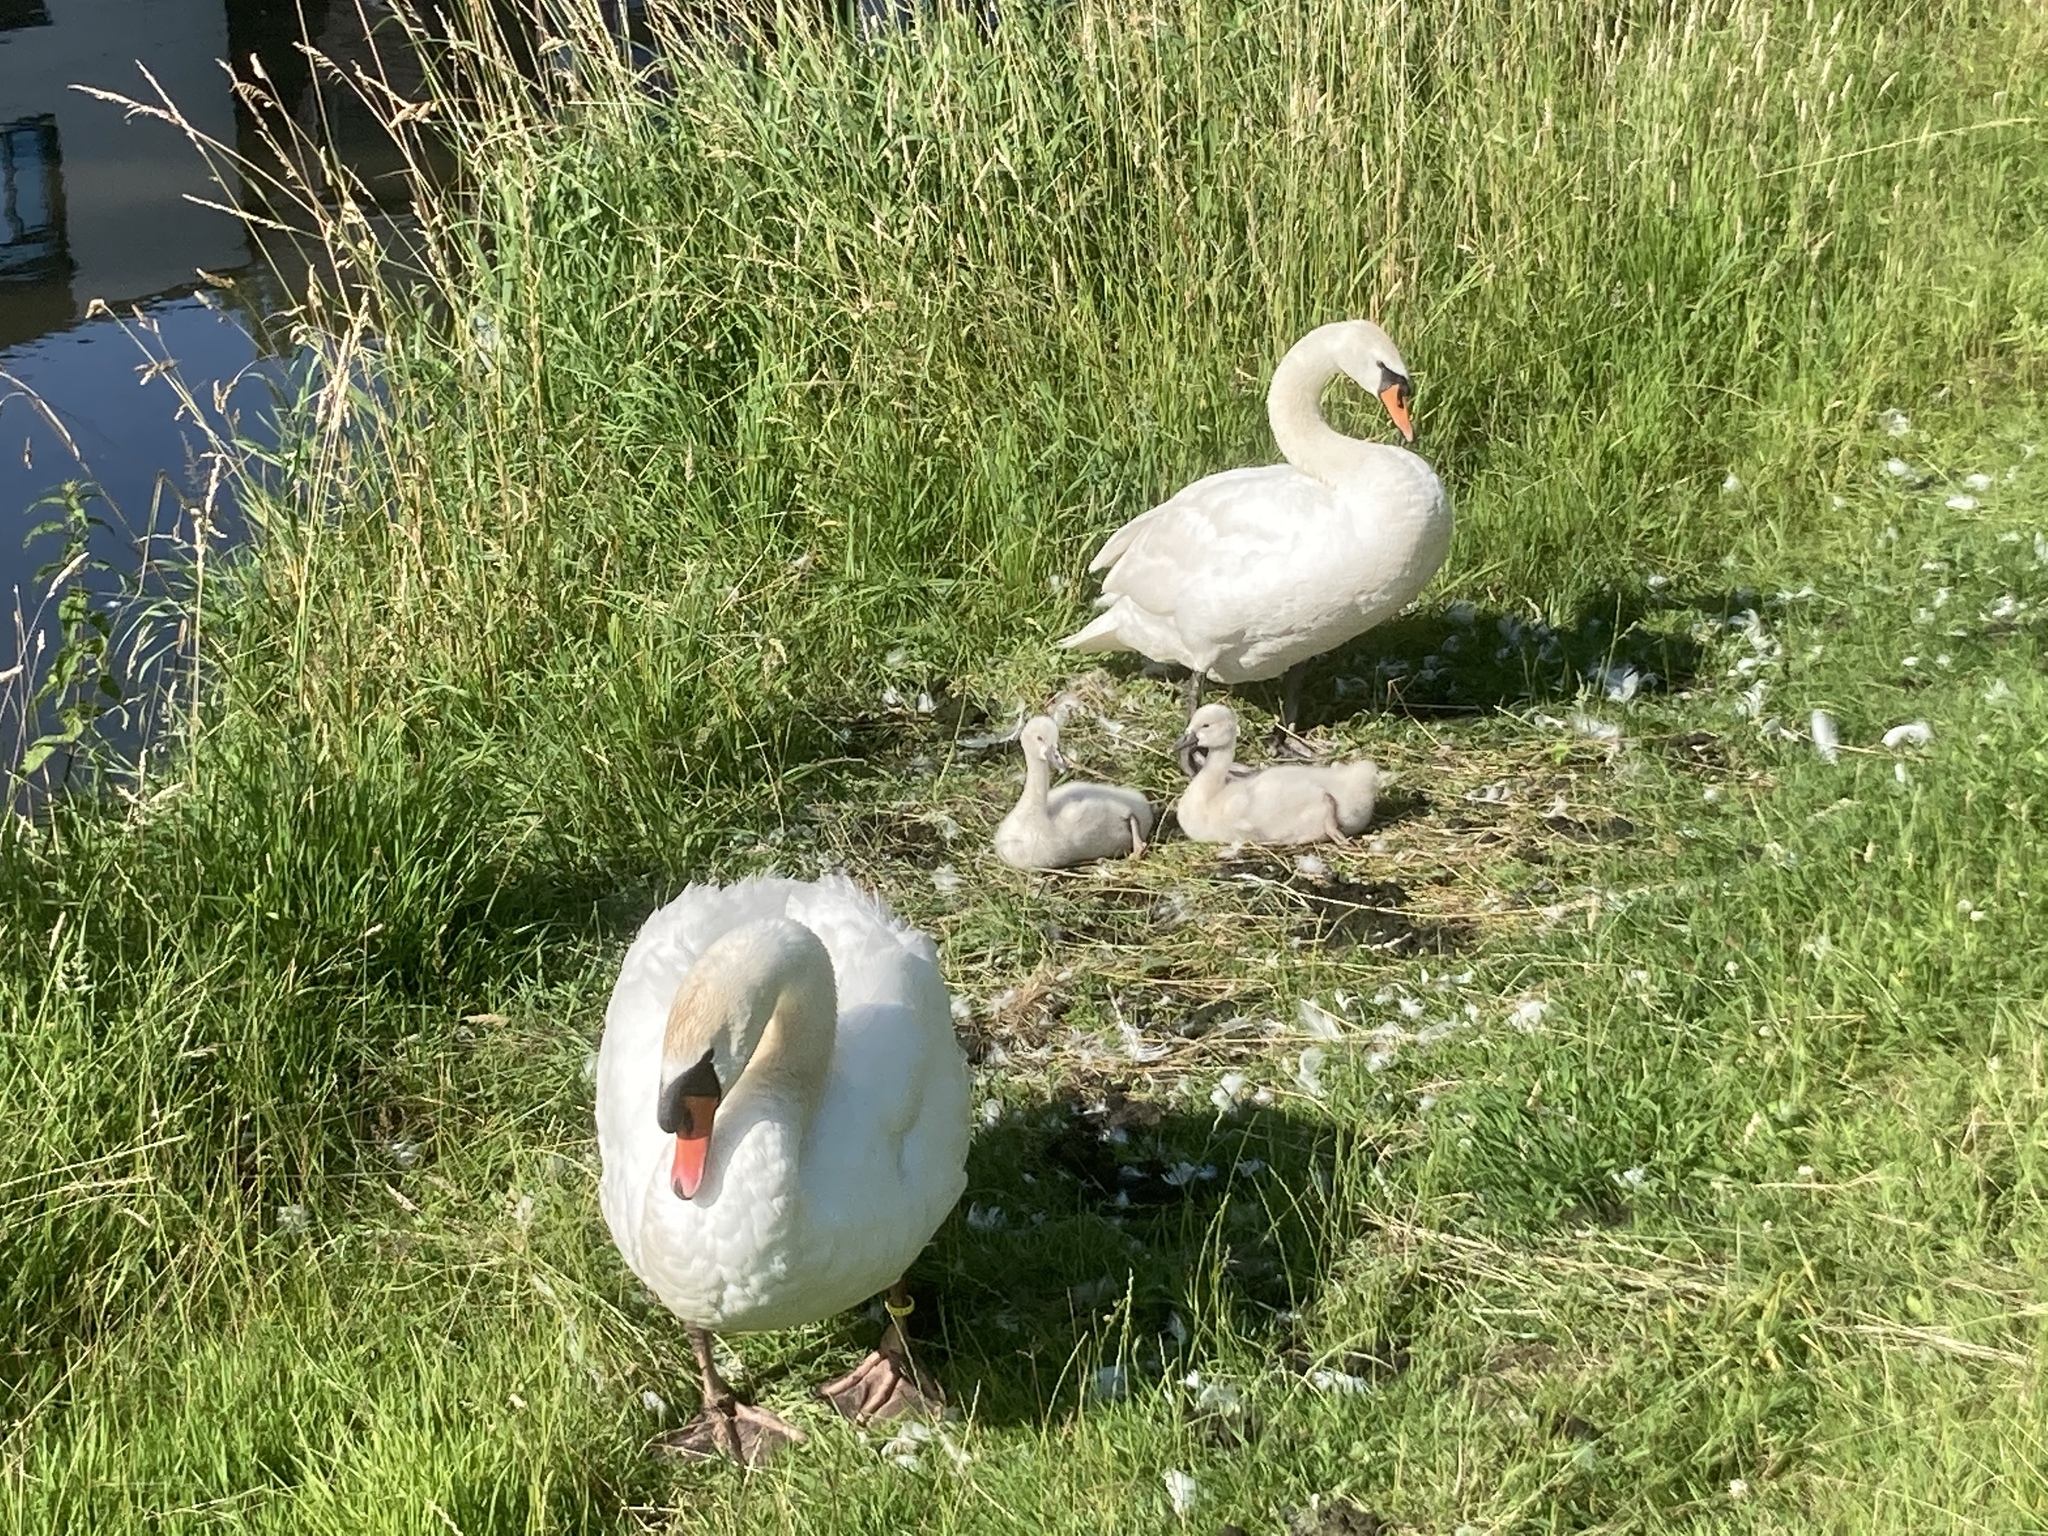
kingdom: Animalia
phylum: Chordata
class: Aves
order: Anseriformes
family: Anatidae
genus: Cygnus
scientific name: Cygnus olor
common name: Mute swan
